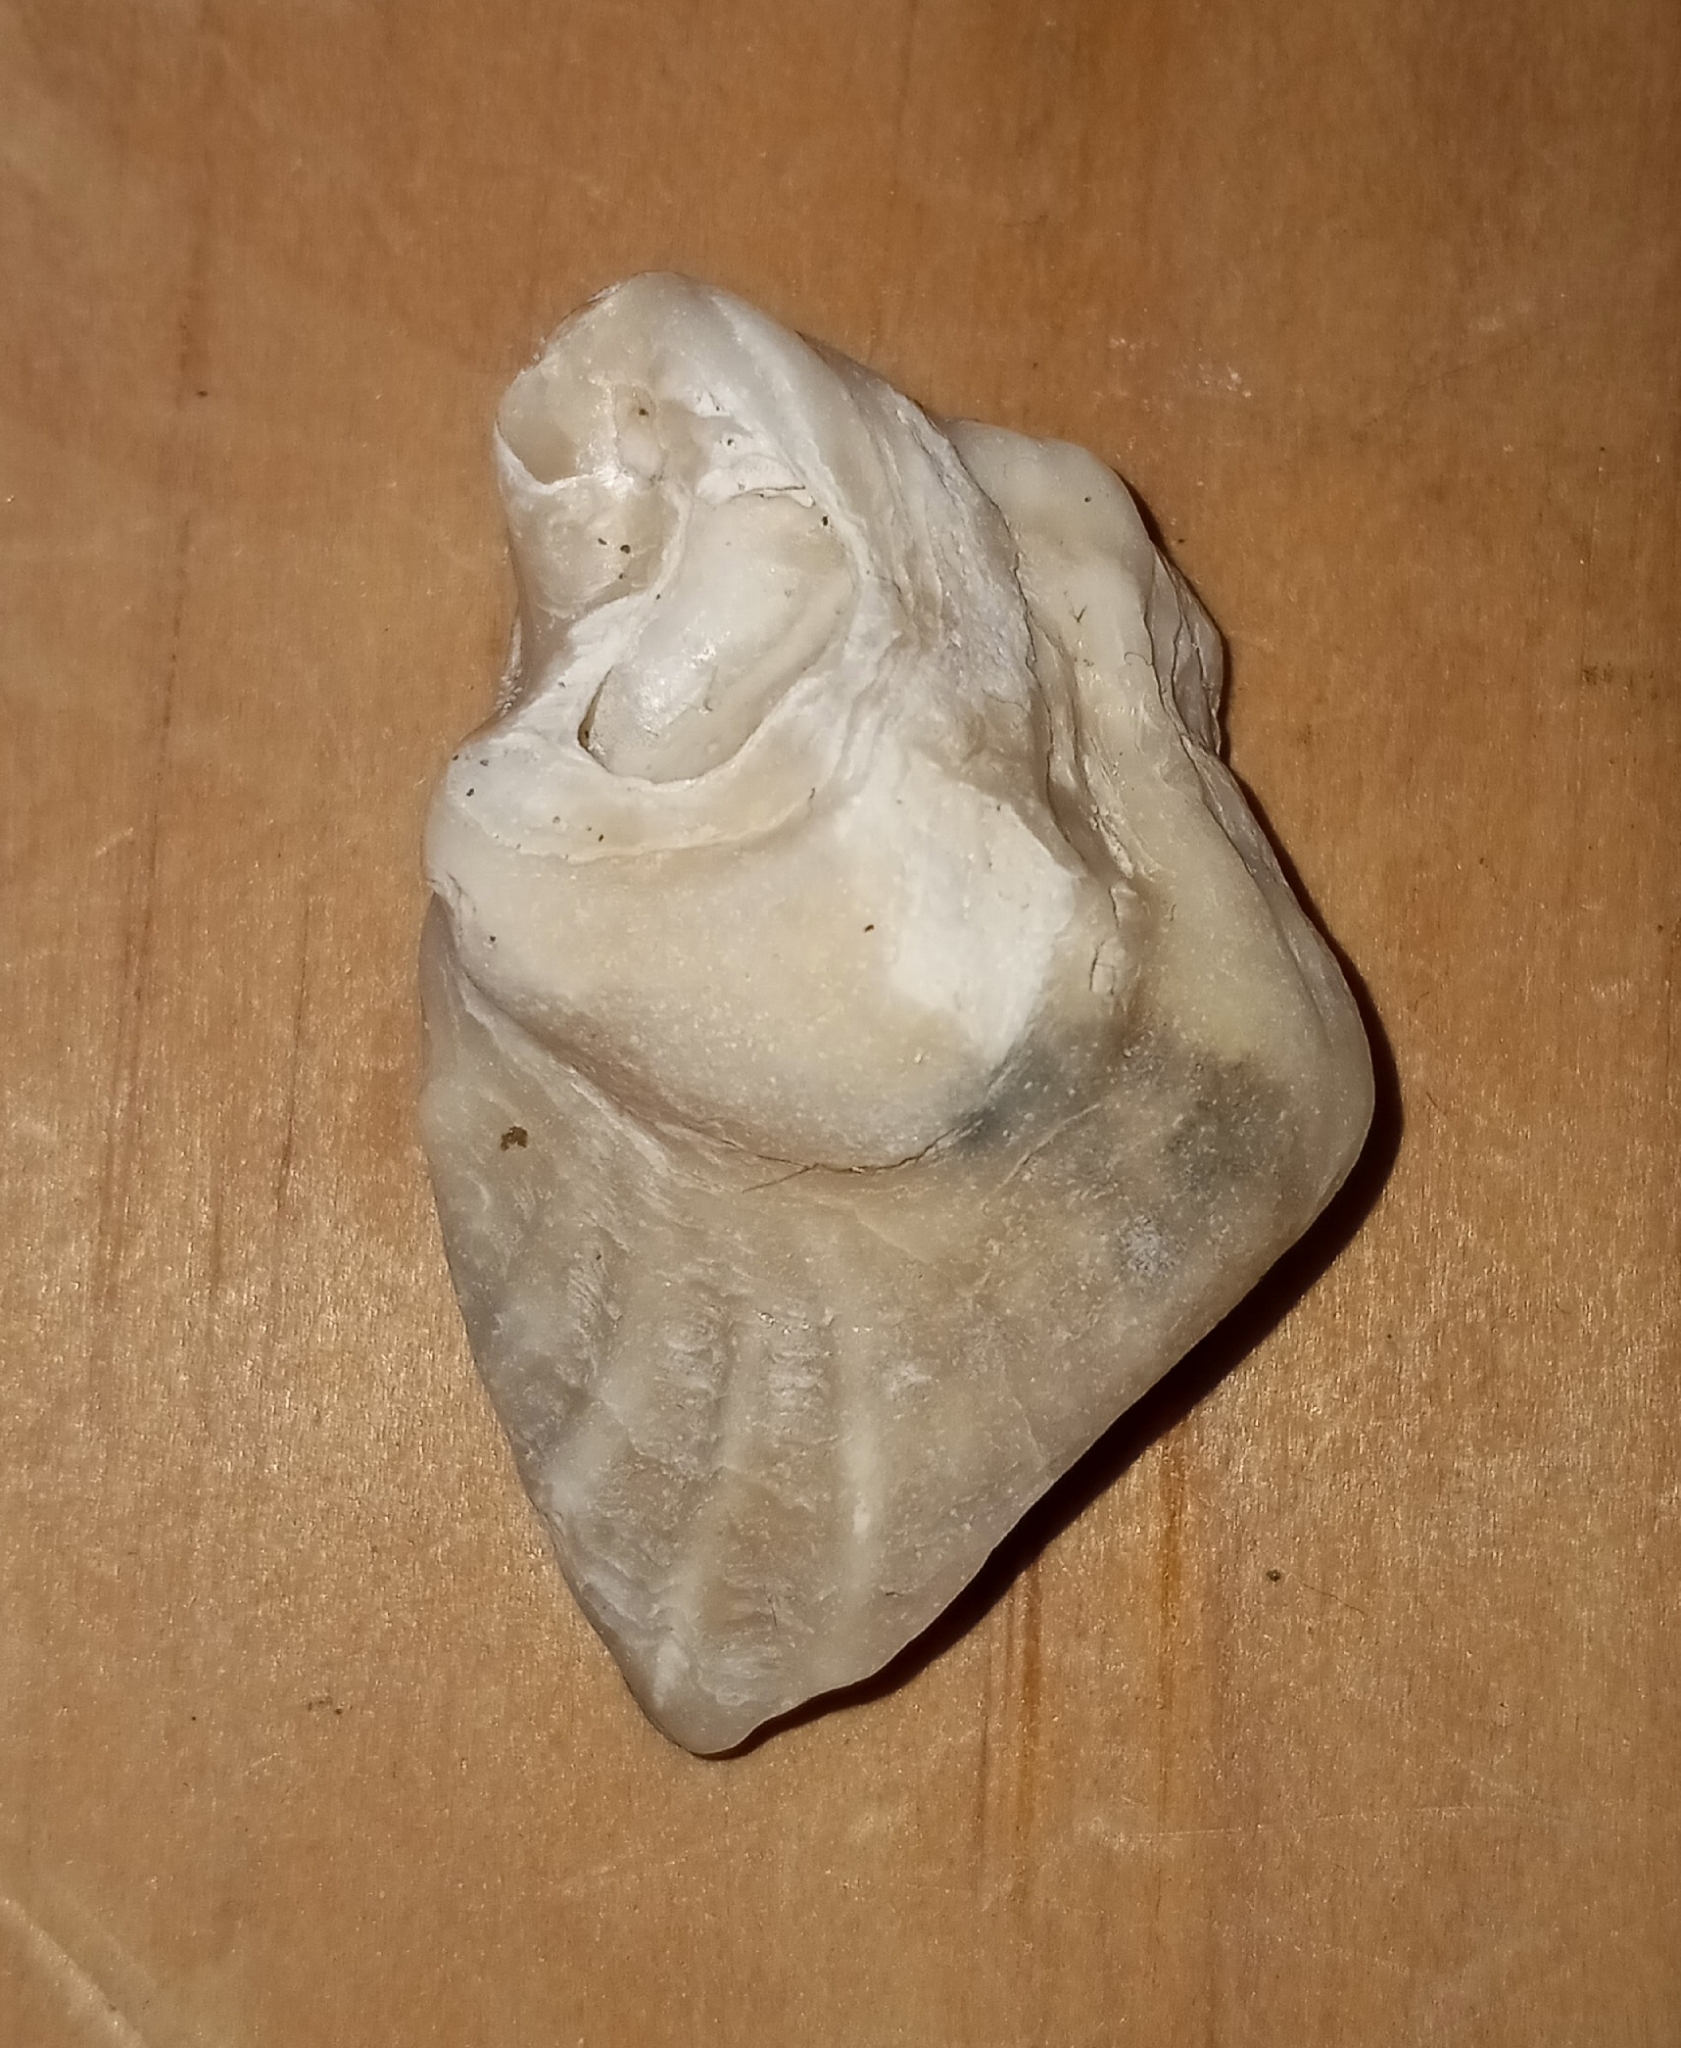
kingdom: Animalia
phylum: Mollusca
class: Bivalvia
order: Ostreida
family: Ostreidae
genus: Crassostrea
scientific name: Crassostrea virginica
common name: American oyster
